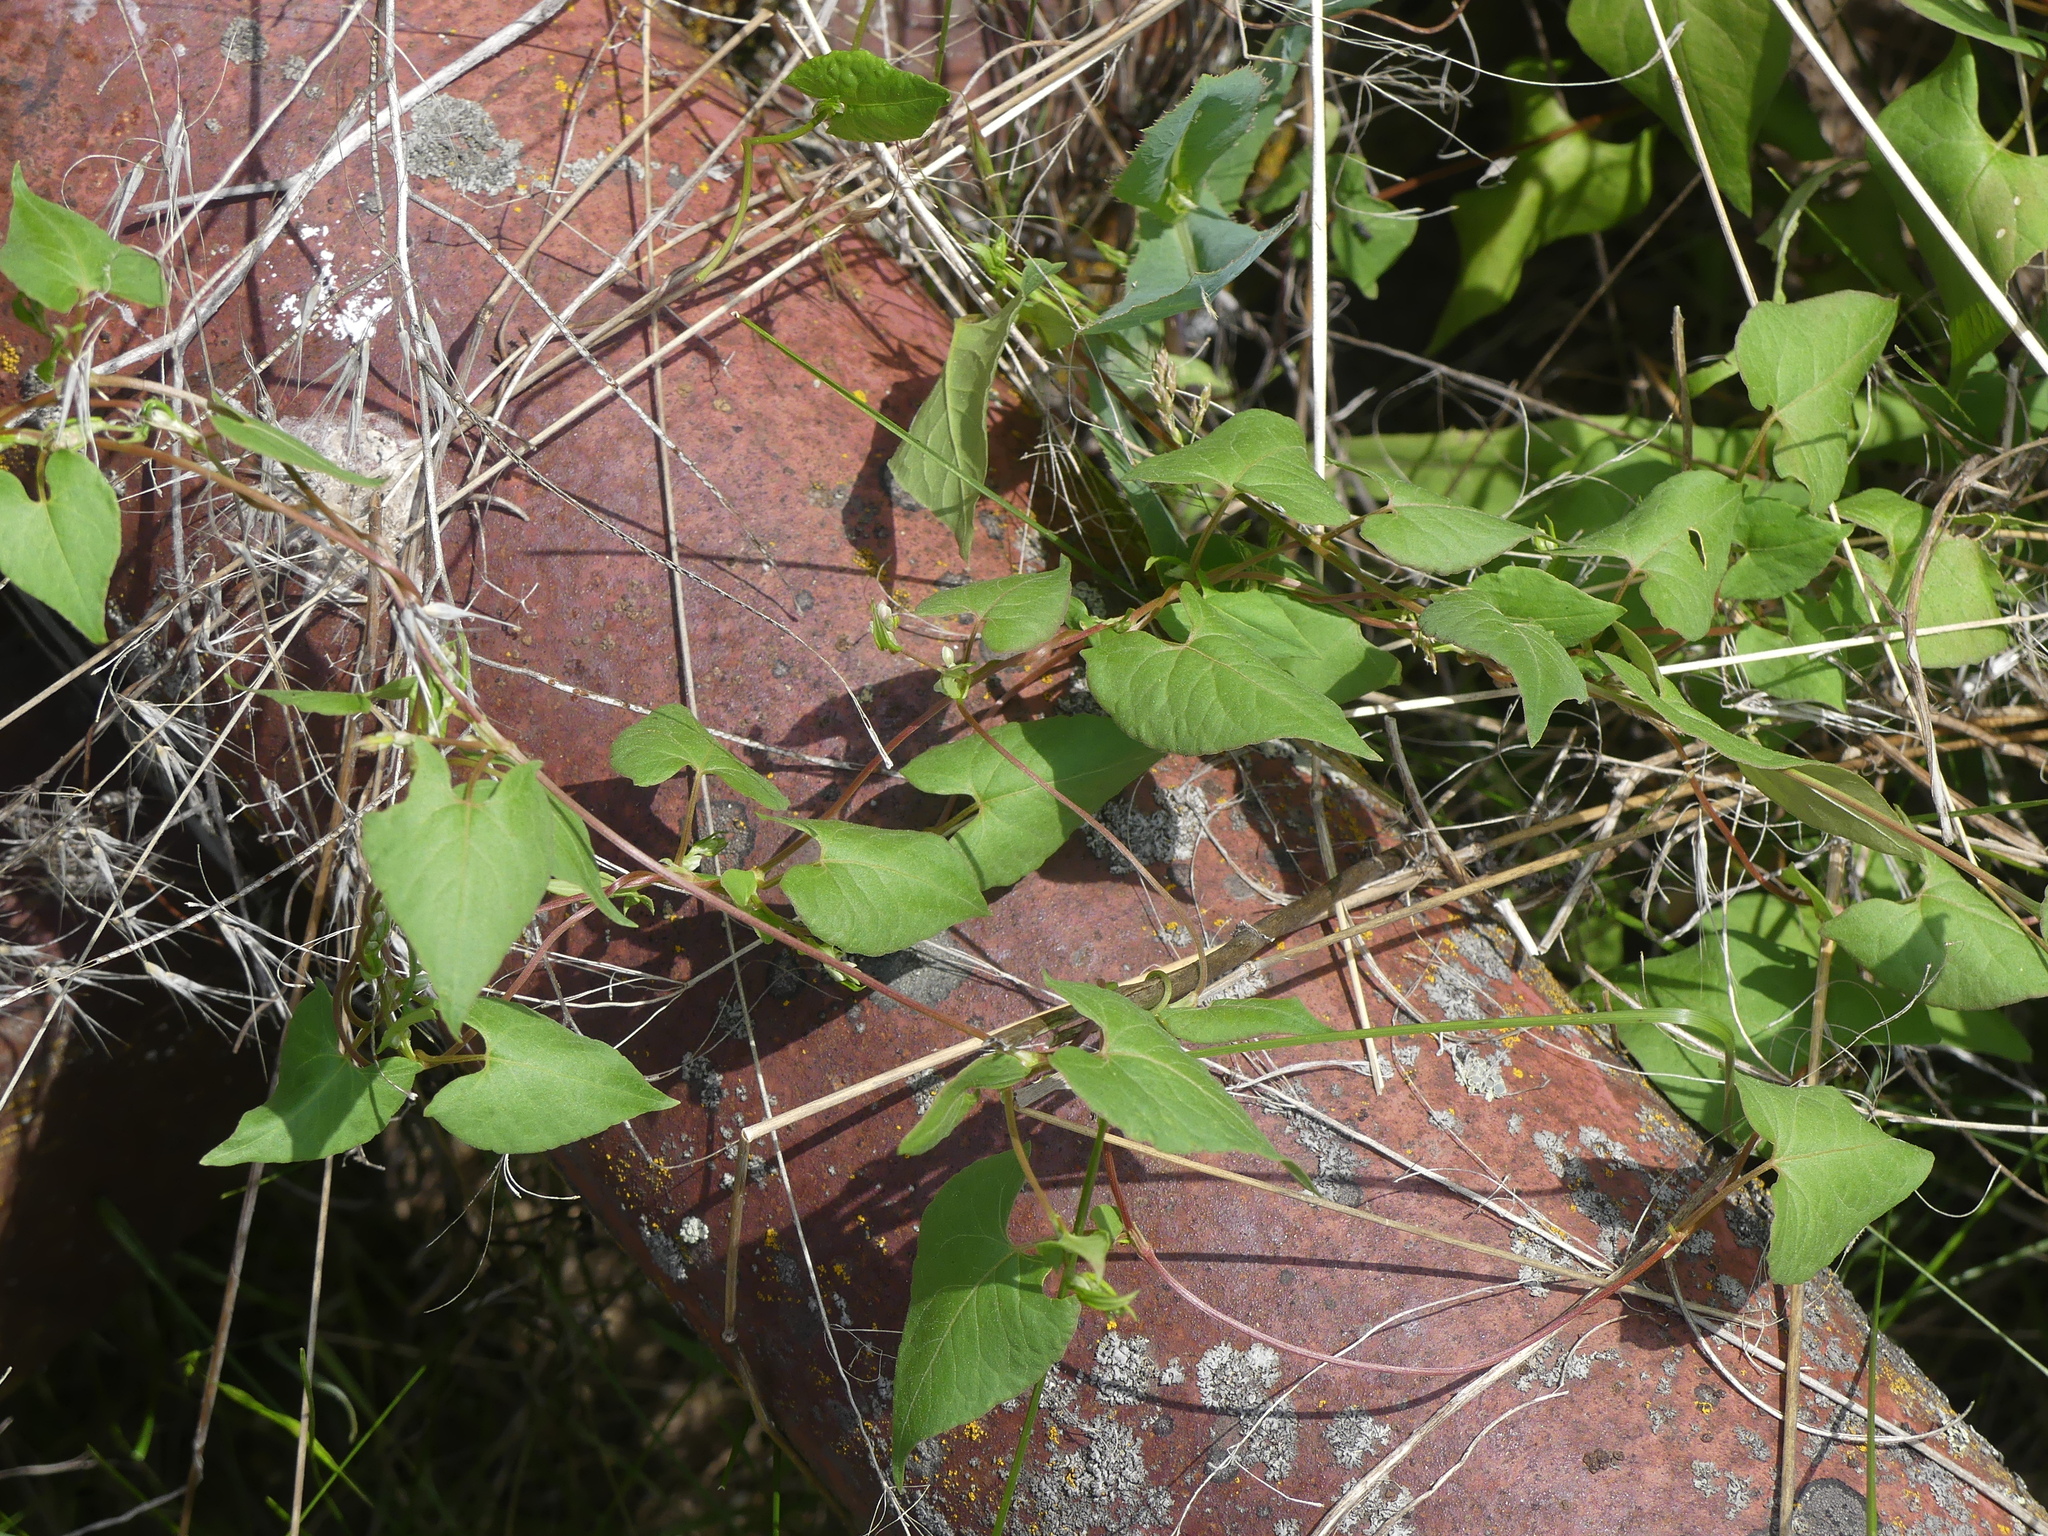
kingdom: Plantae
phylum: Tracheophyta
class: Magnoliopsida
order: Caryophyllales
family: Polygonaceae
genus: Fallopia
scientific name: Fallopia convolvulus
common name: Black bindweed
